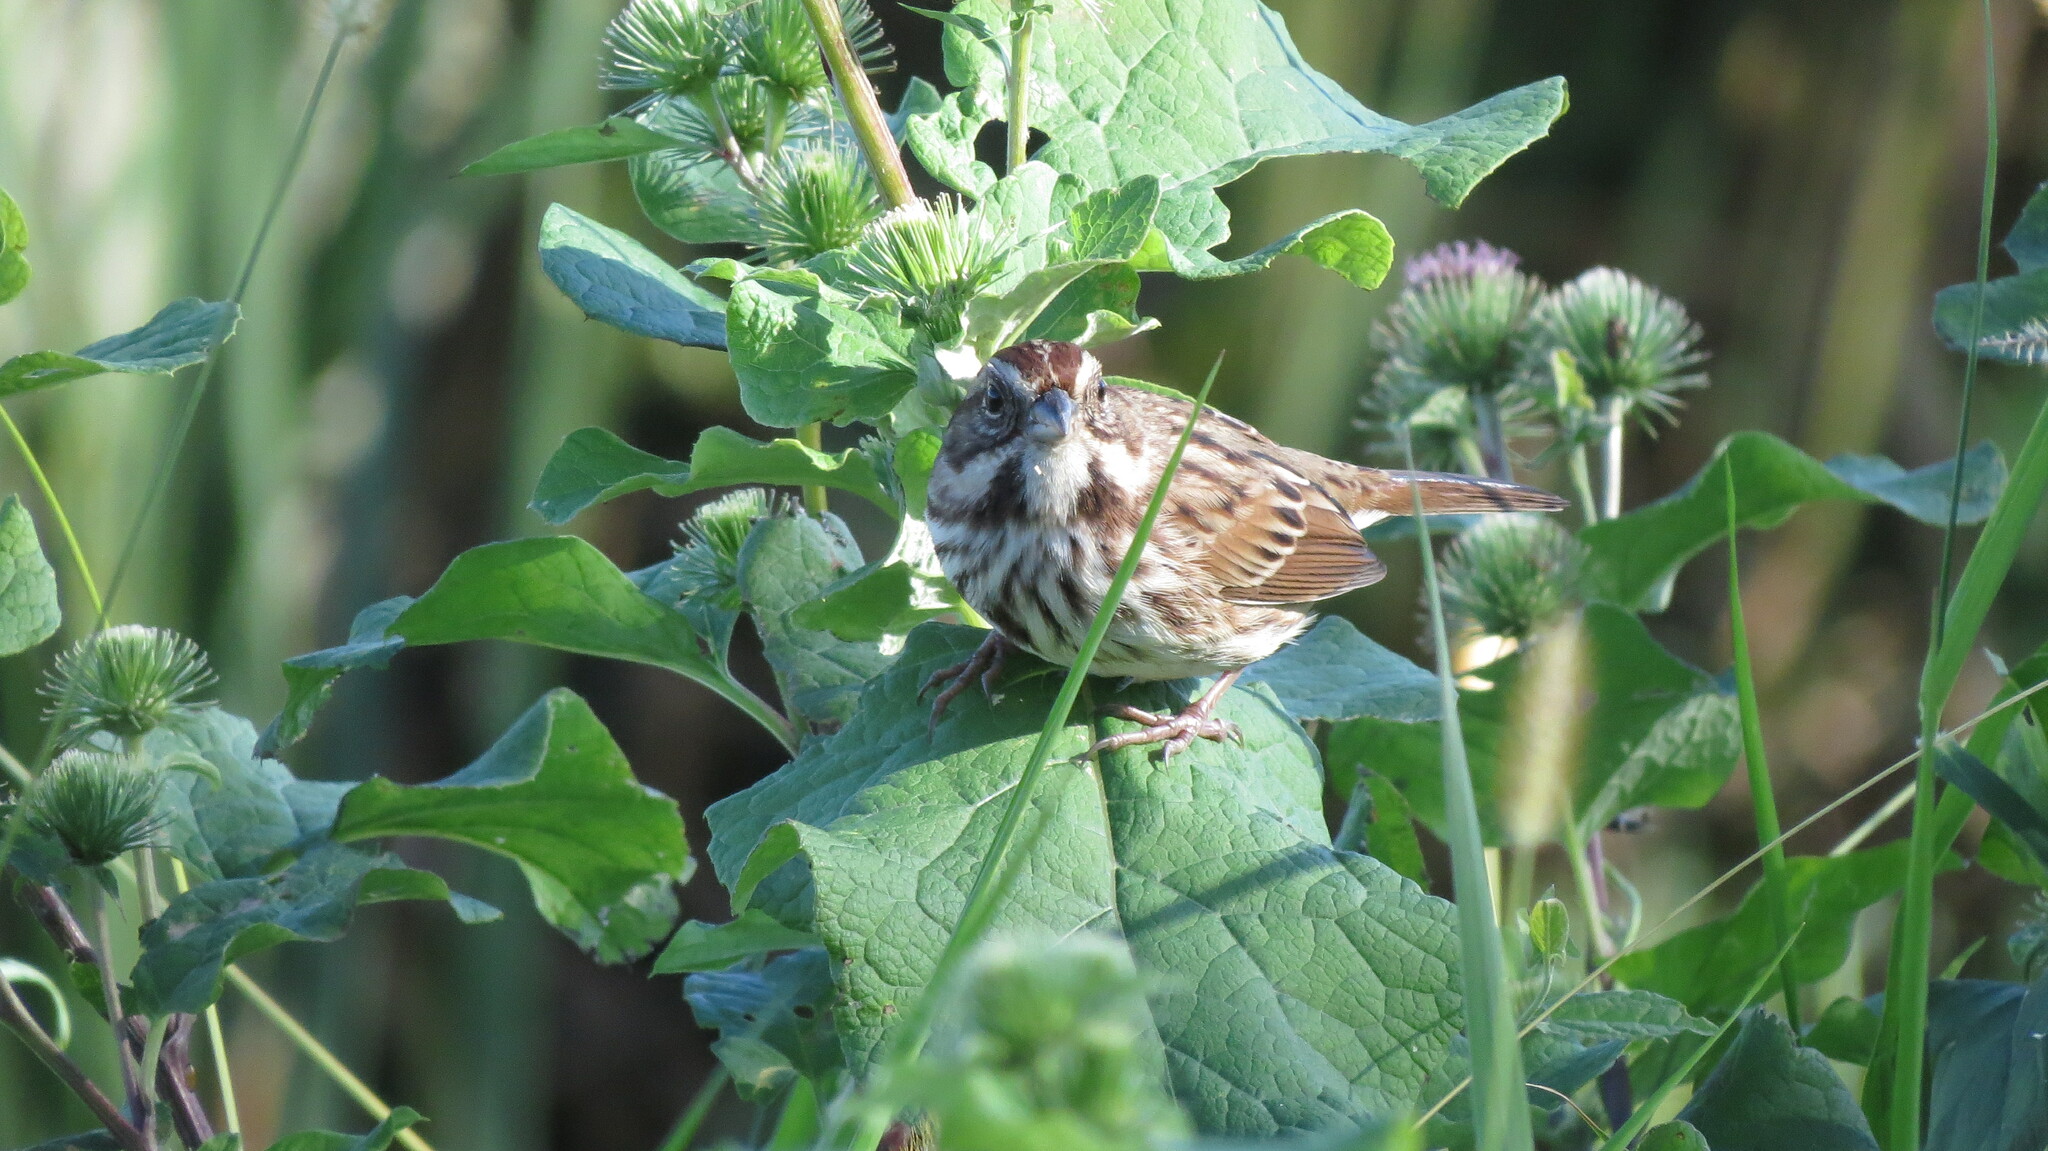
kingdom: Animalia
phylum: Chordata
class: Aves
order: Passeriformes
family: Passerellidae
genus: Melospiza
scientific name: Melospiza melodia
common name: Song sparrow
